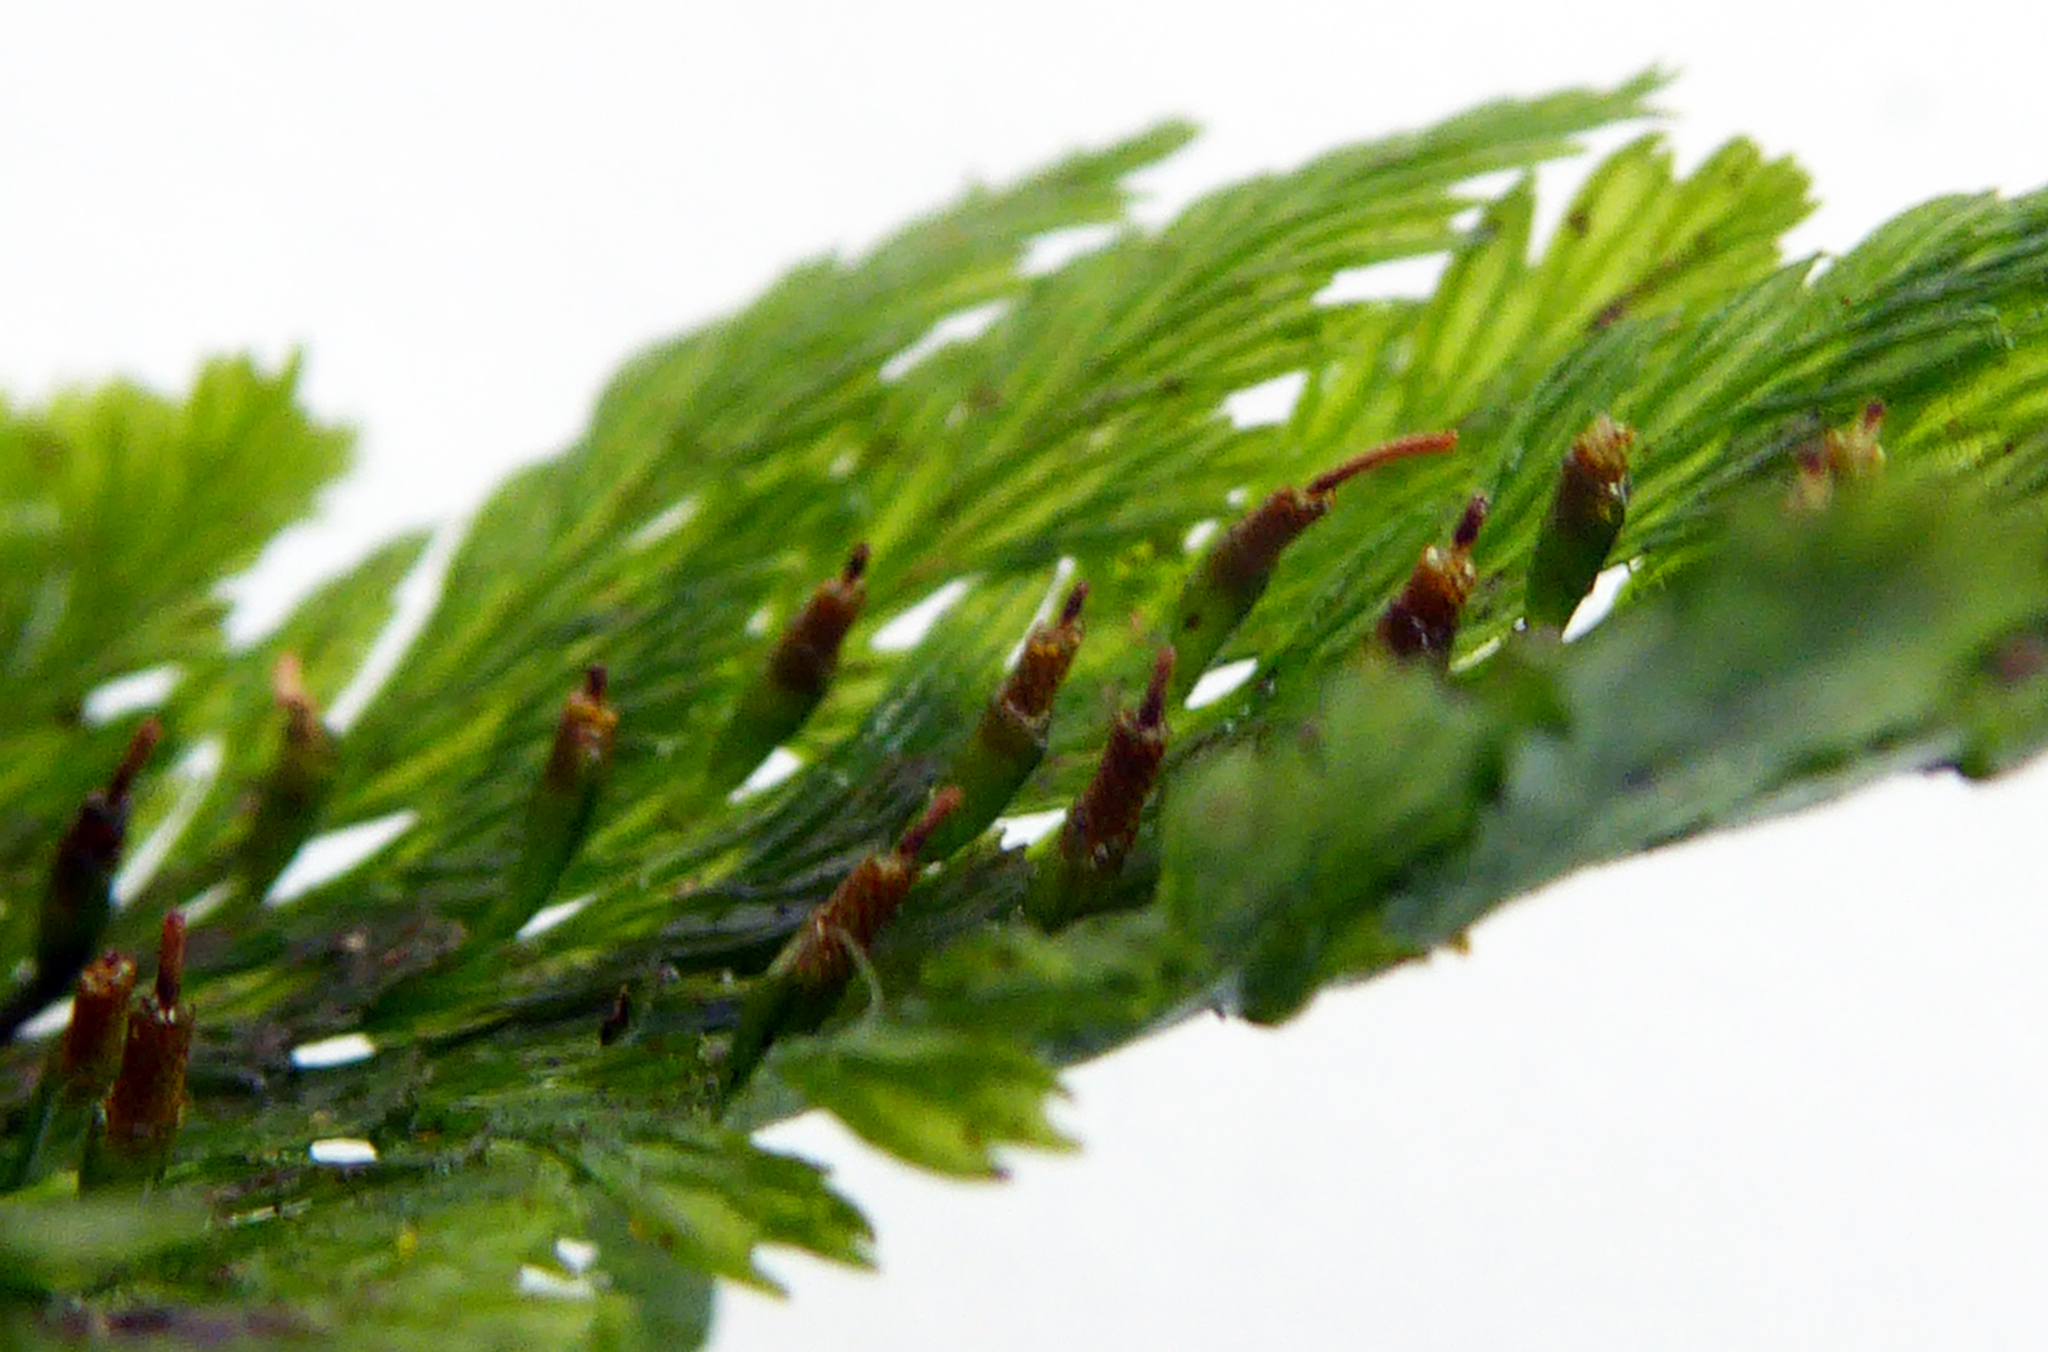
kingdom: Plantae
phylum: Tracheophyta
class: Polypodiopsida
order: Hymenophyllales
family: Hymenophyllaceae
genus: Abrodictyum
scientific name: Abrodictyum elongatum
